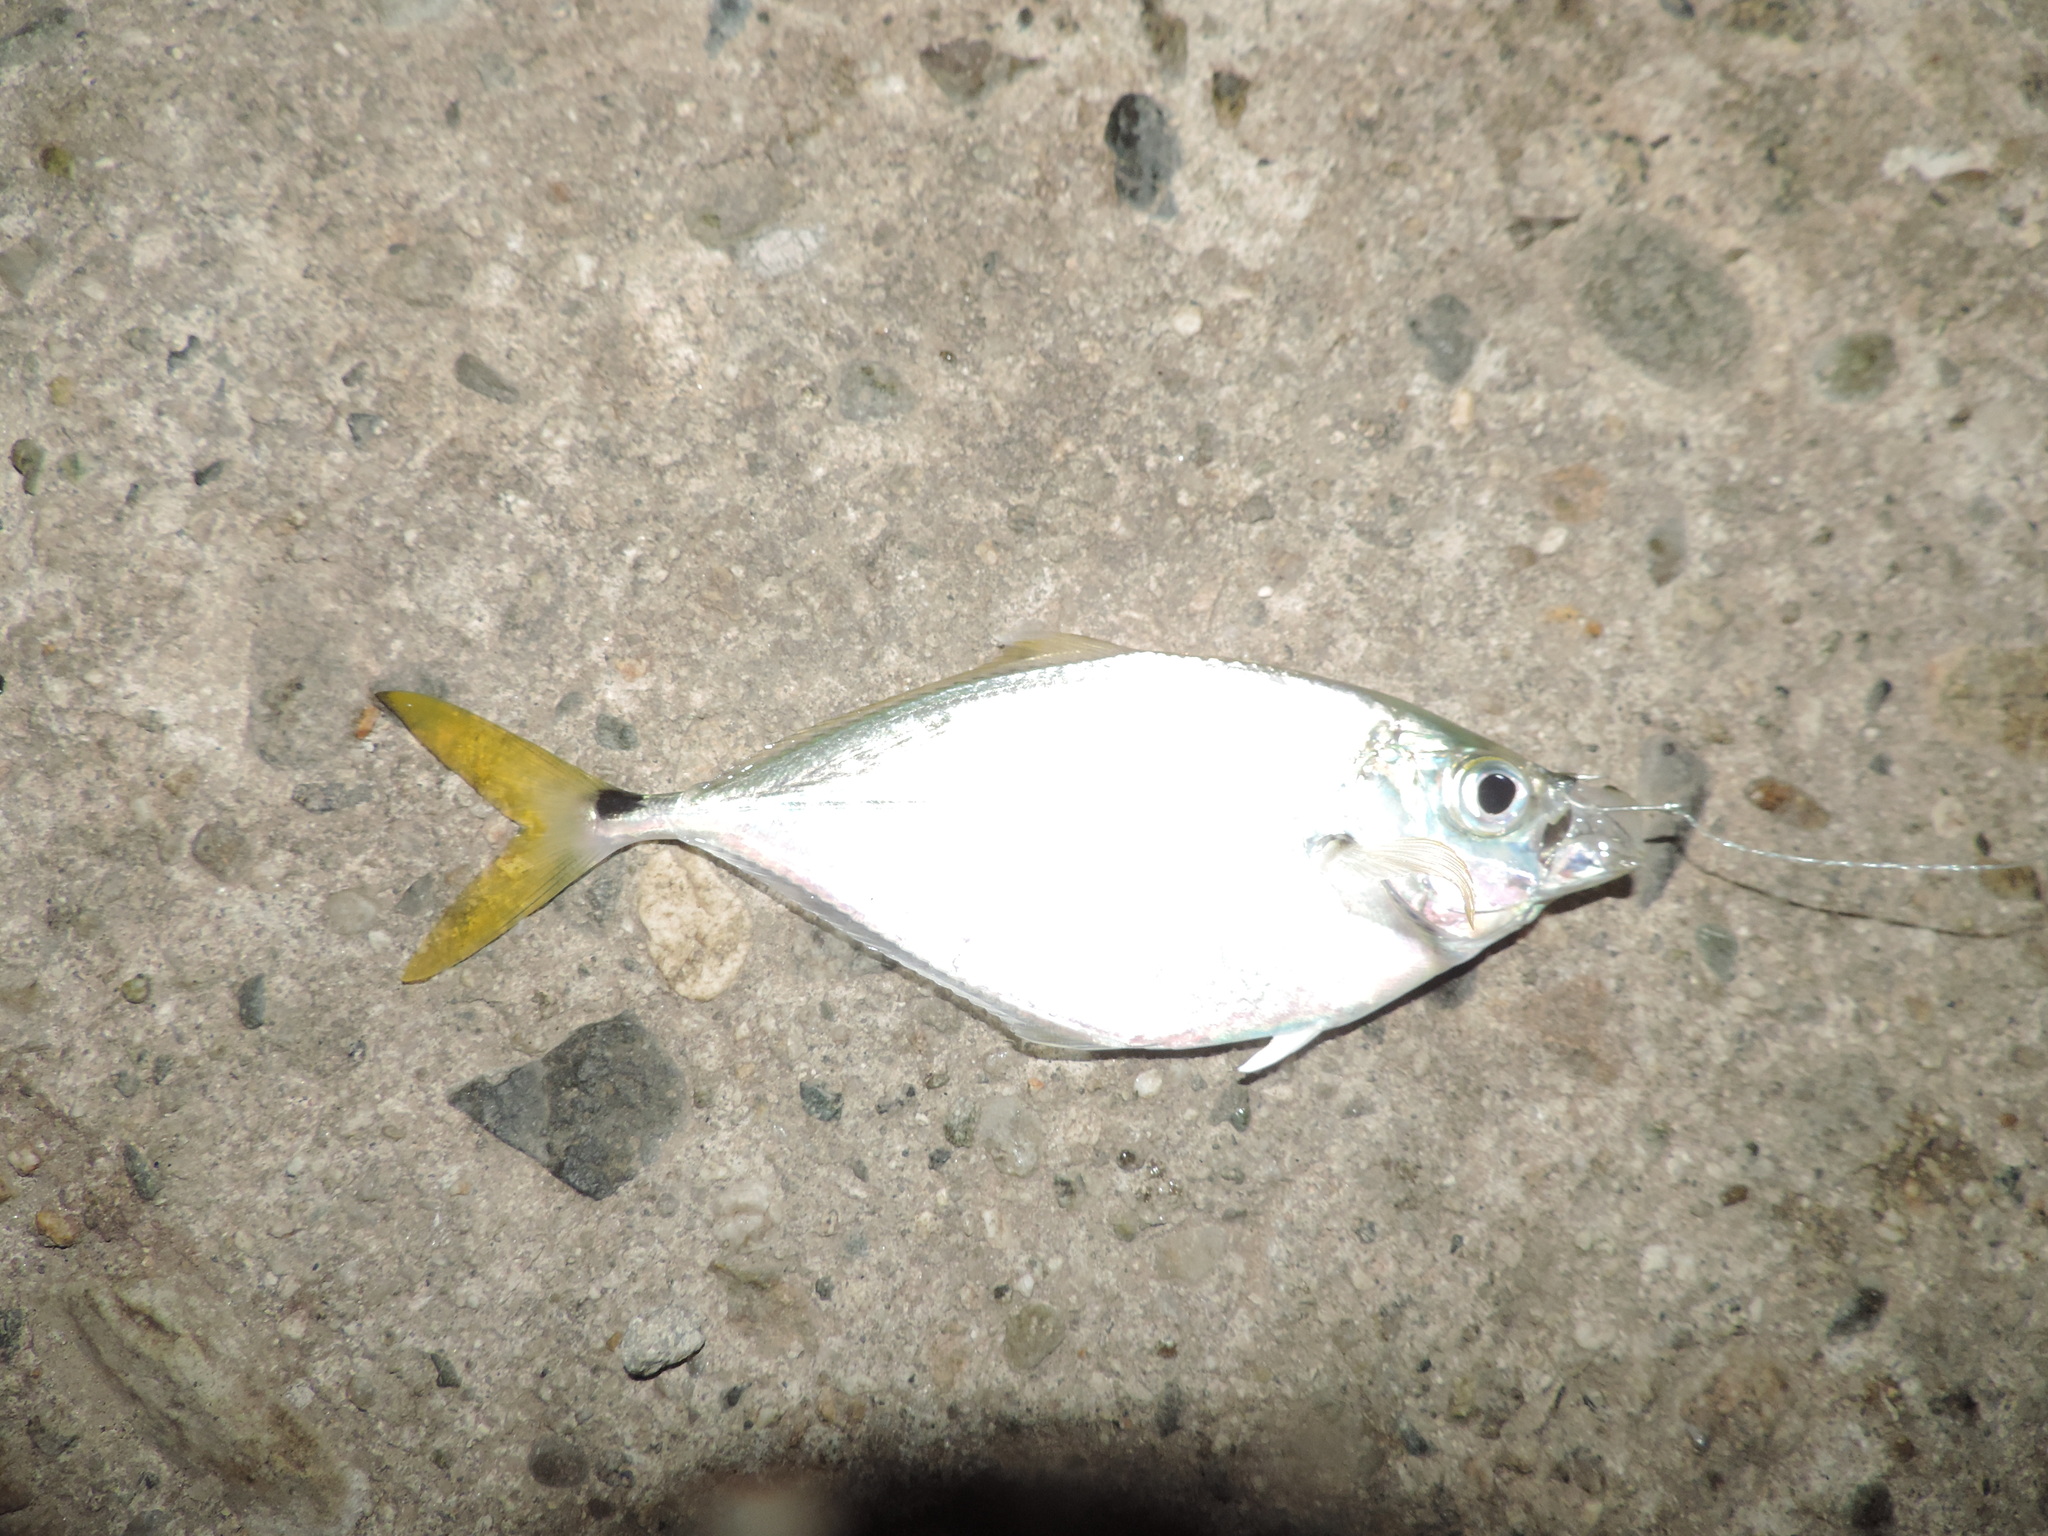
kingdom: Animalia
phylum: Chordata
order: Perciformes
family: Carangidae
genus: Chloroscombrus
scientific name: Chloroscombrus chrysurus
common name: Bumper
